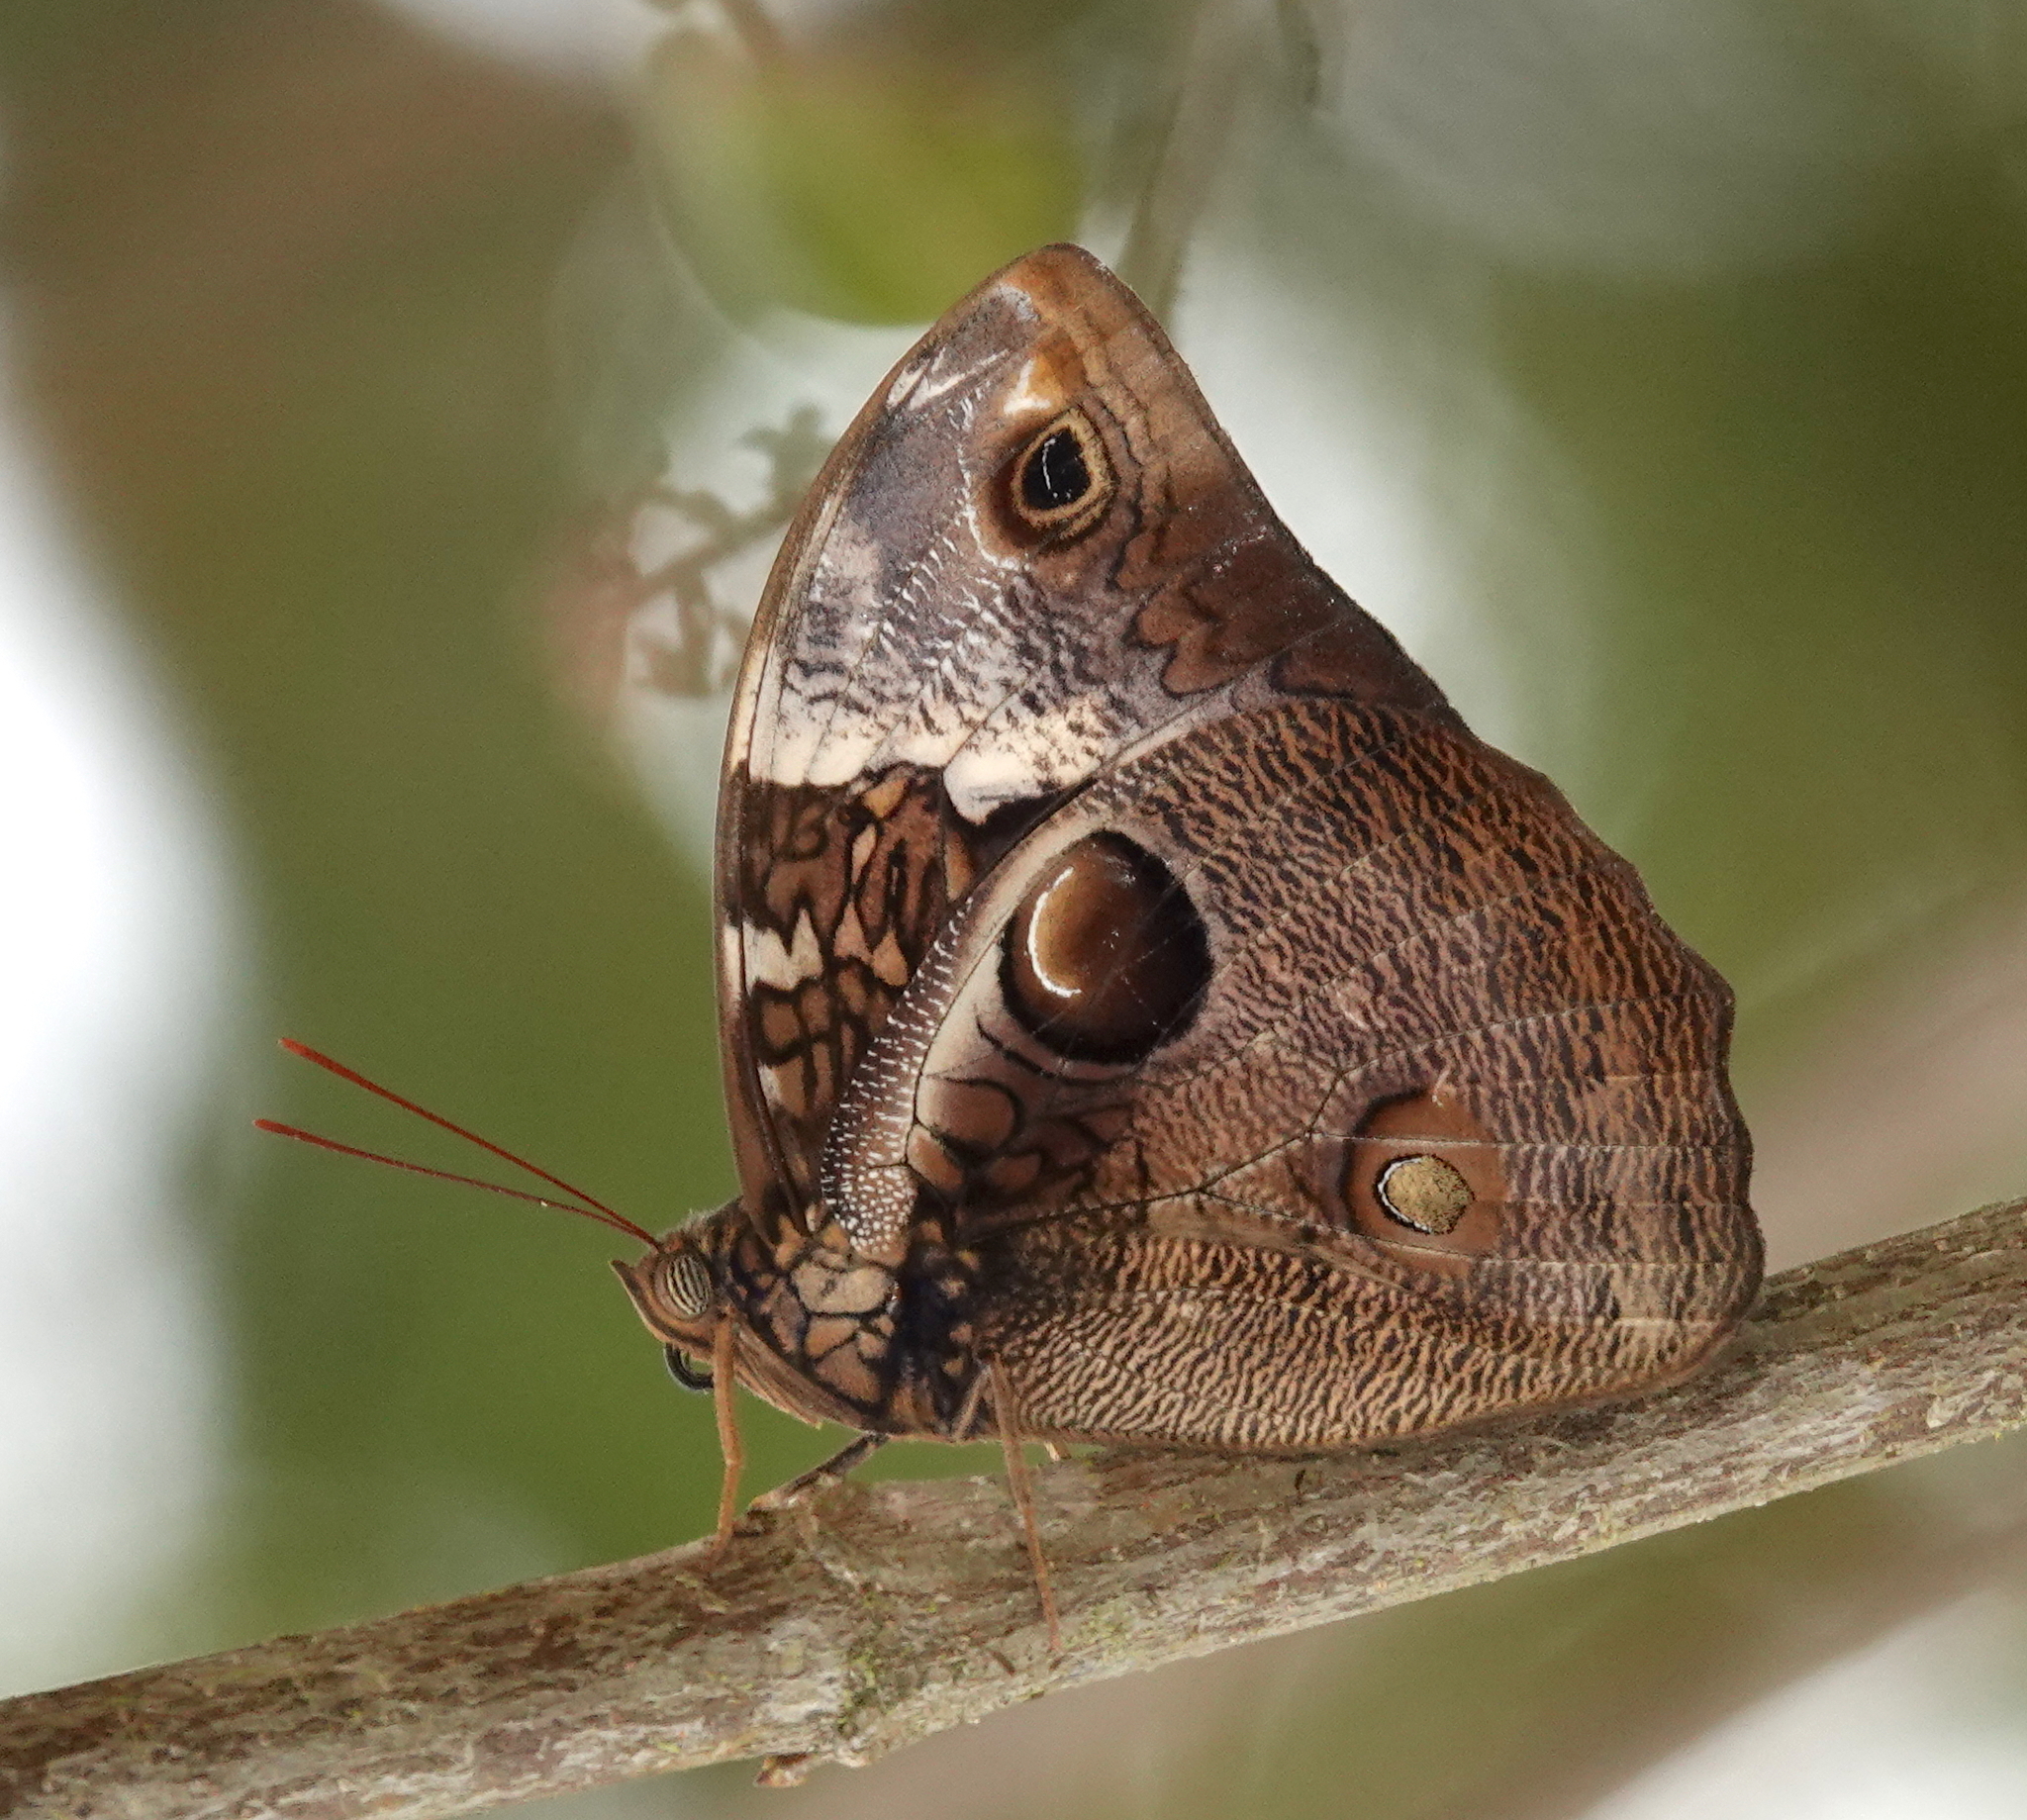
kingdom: Animalia
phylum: Arthropoda
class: Insecta
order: Lepidoptera
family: Nymphalidae
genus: Opsiphanes
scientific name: Opsiphanes bogotanus
